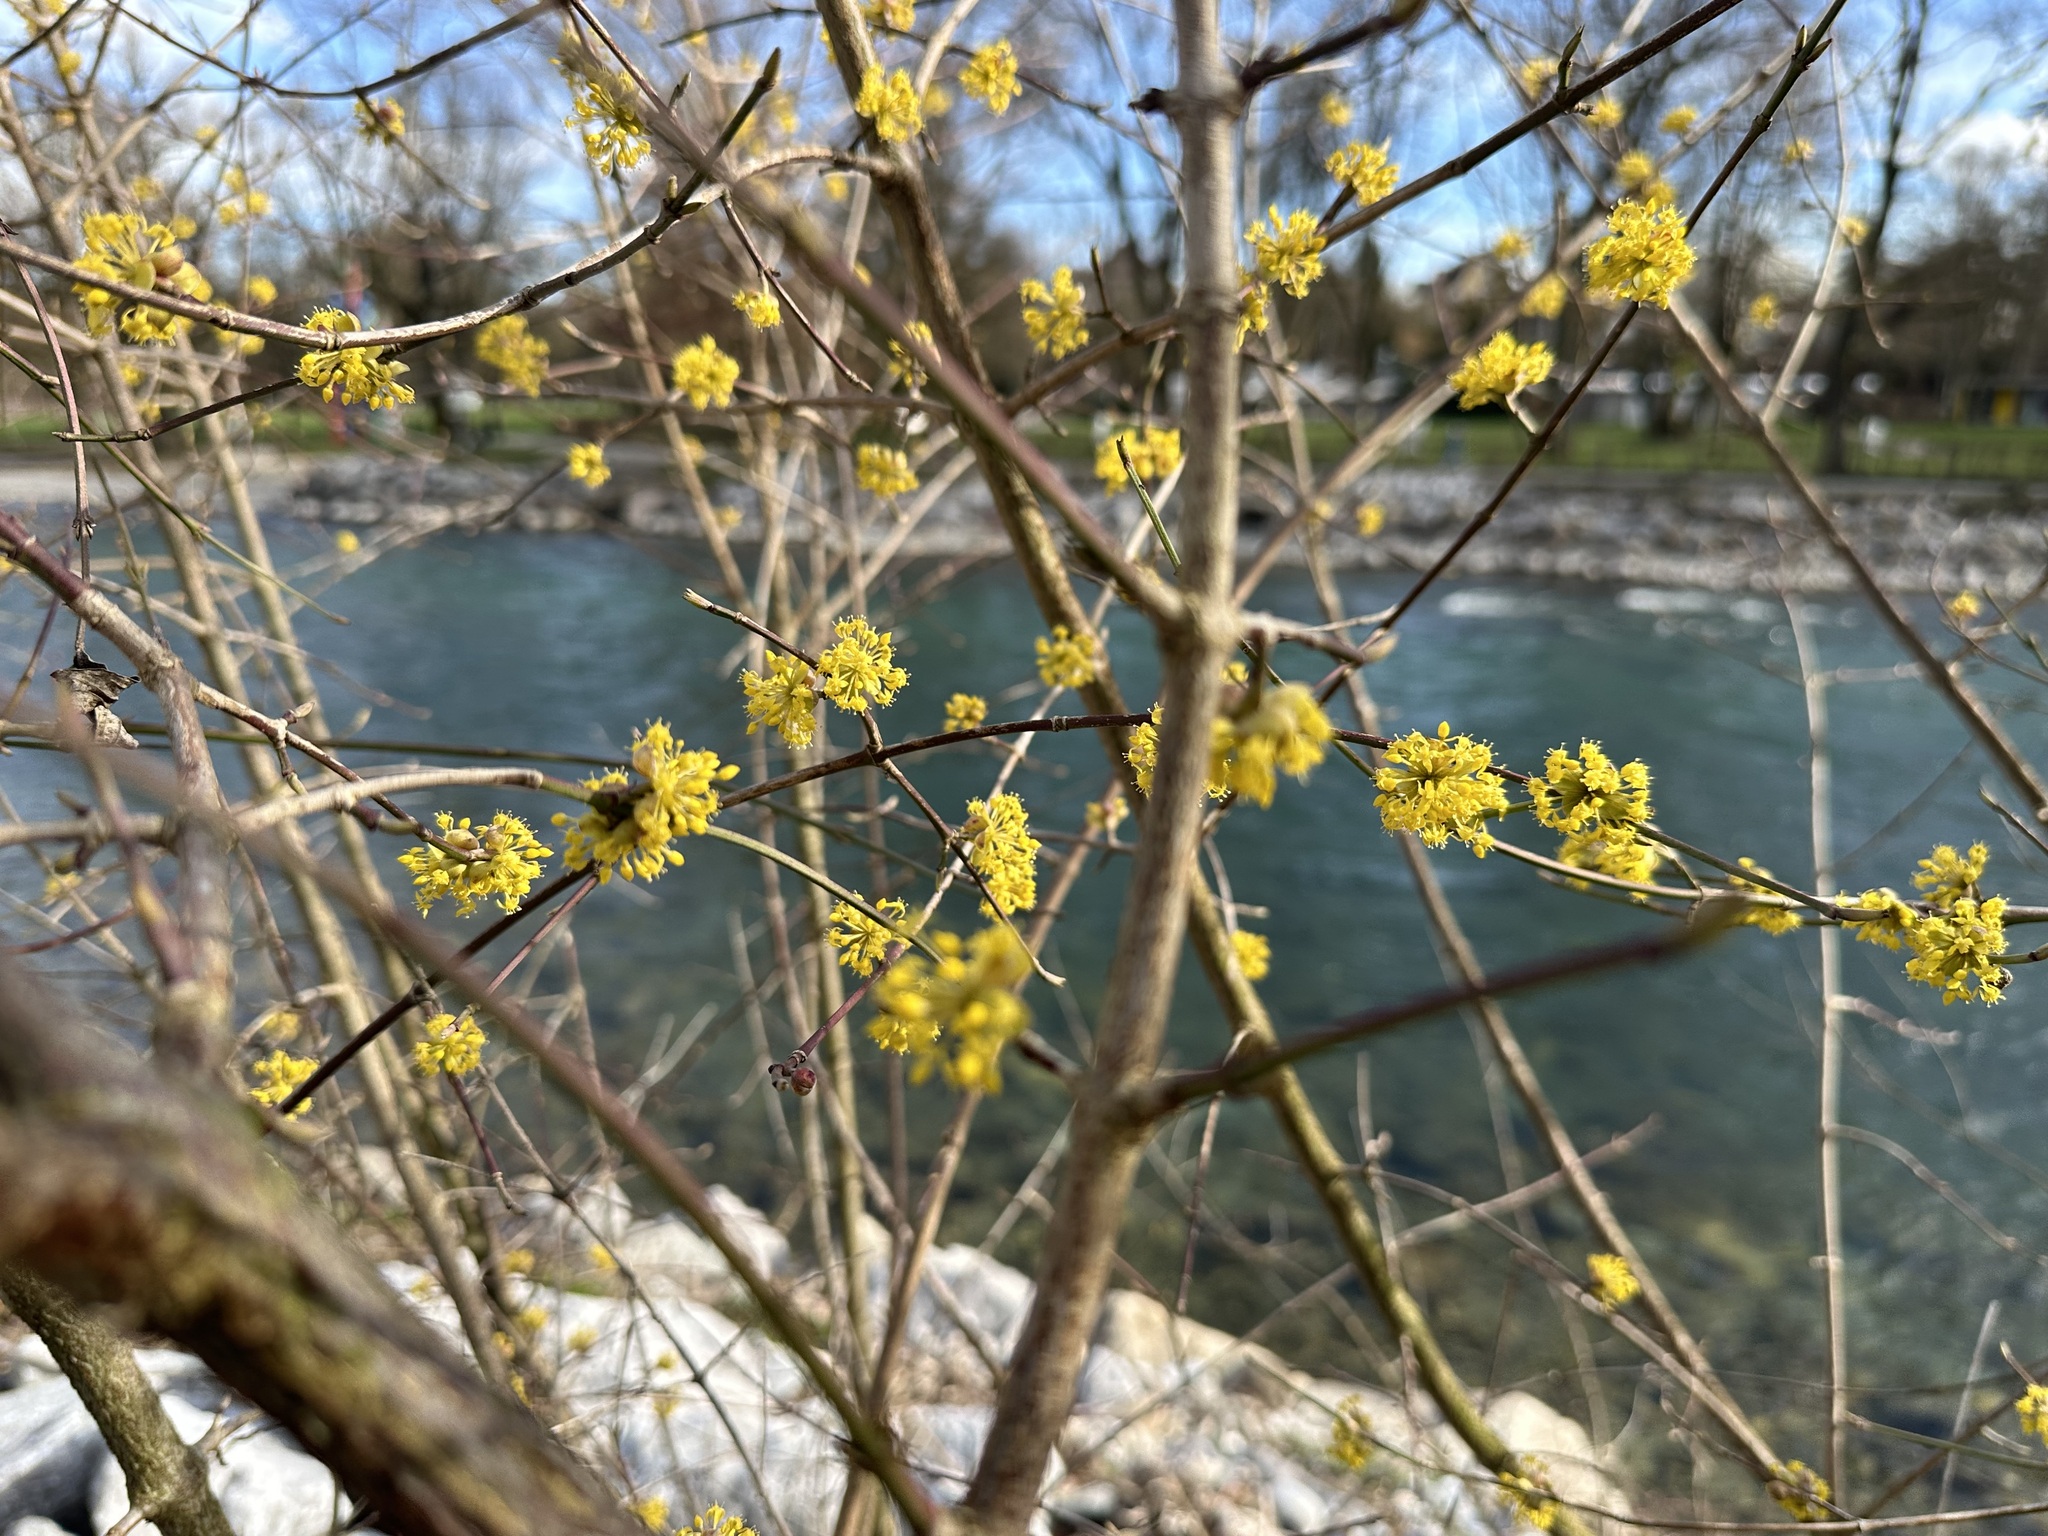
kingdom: Plantae
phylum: Tracheophyta
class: Magnoliopsida
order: Cornales
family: Cornaceae
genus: Cornus
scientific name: Cornus mas
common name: Cornelian-cherry
